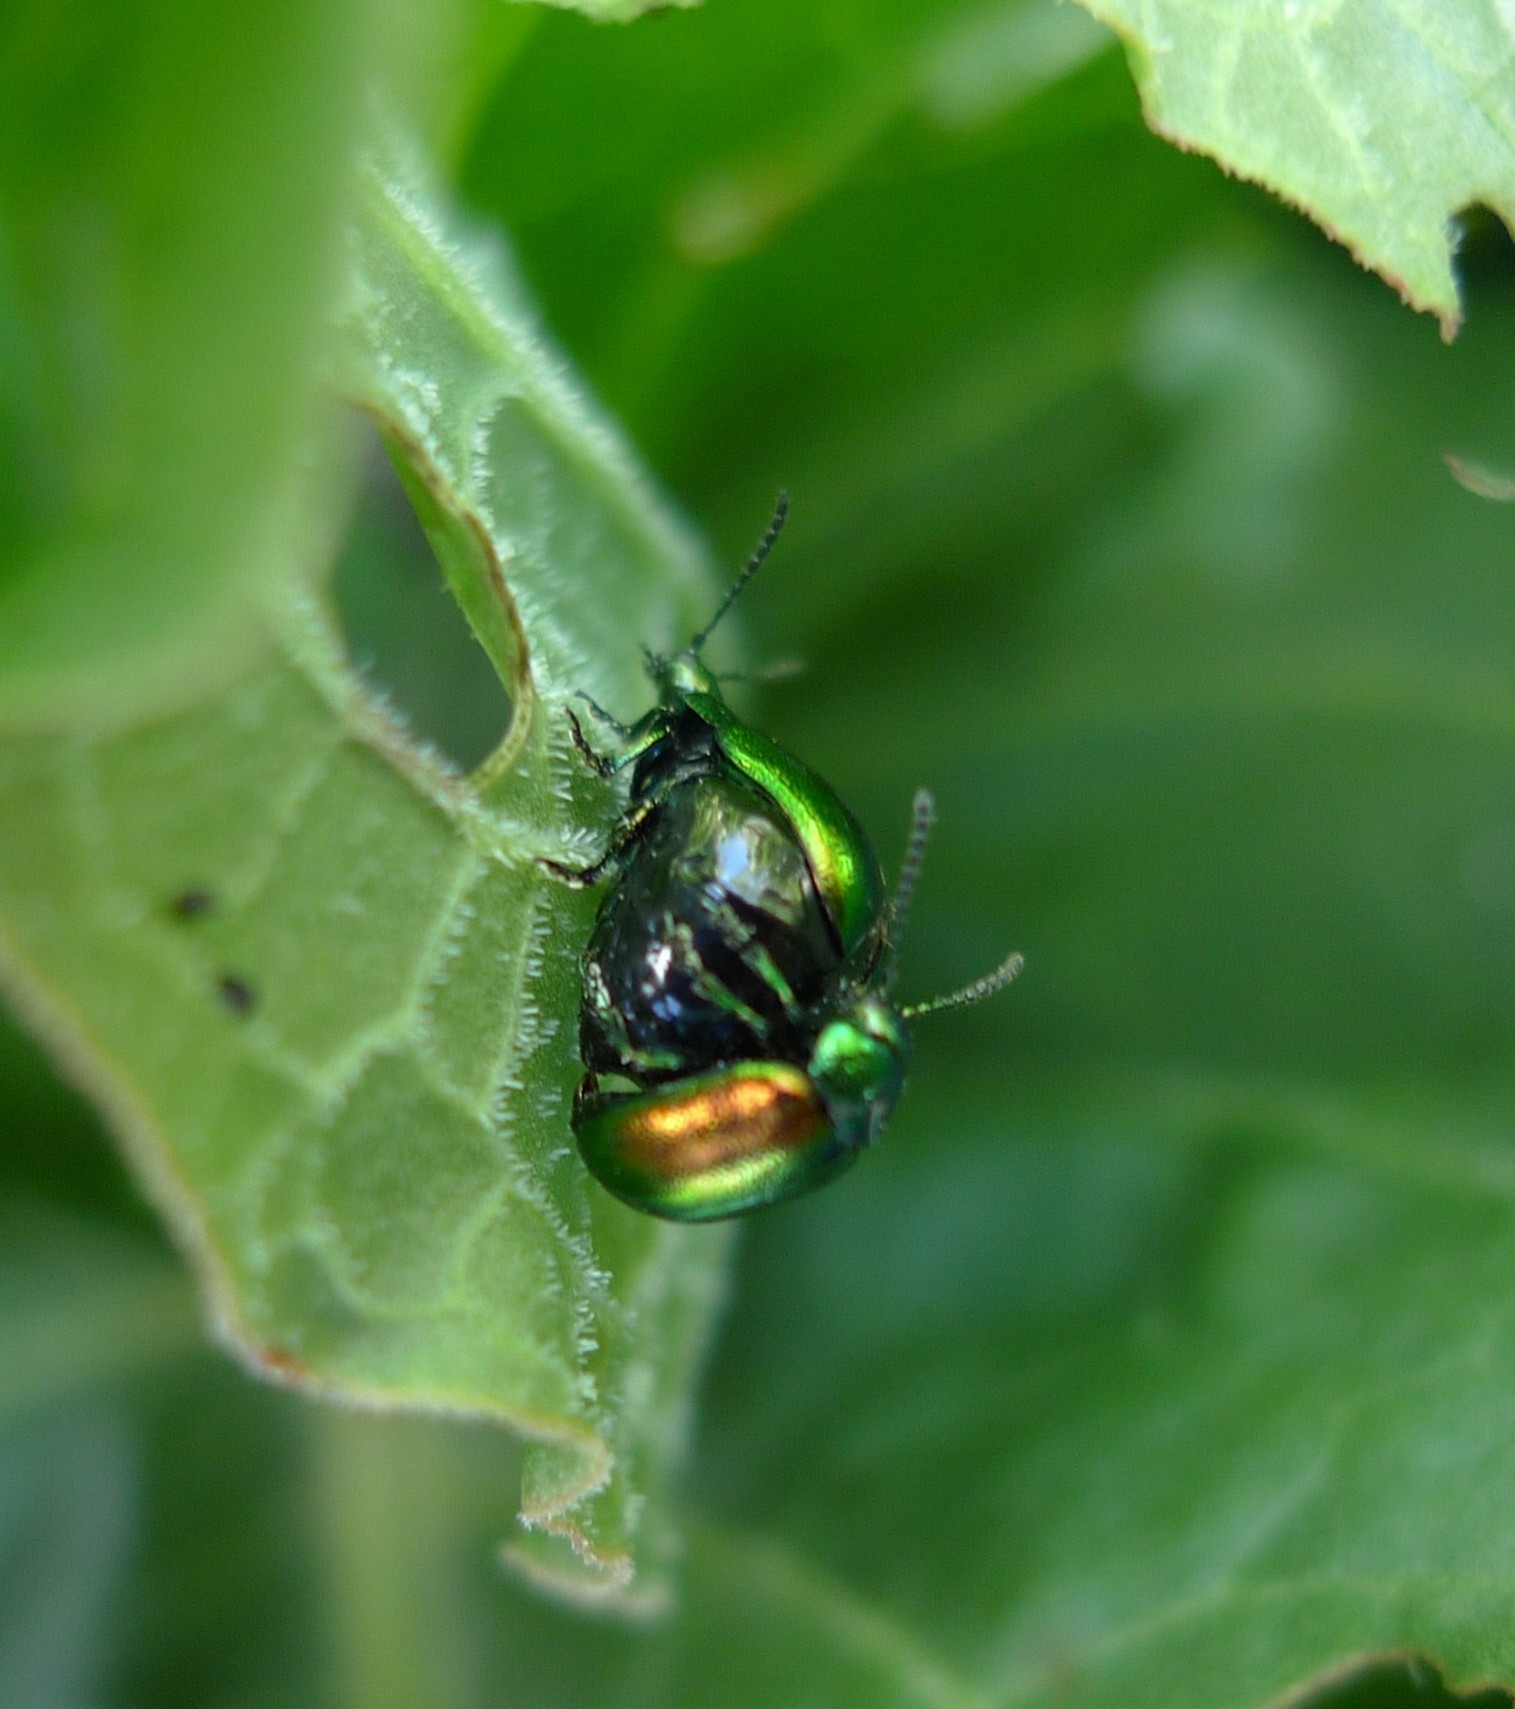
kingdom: Animalia
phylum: Arthropoda
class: Insecta
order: Coleoptera
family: Chrysomelidae
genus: Gastrophysa
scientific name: Gastrophysa viridula
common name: Green dock beetle
